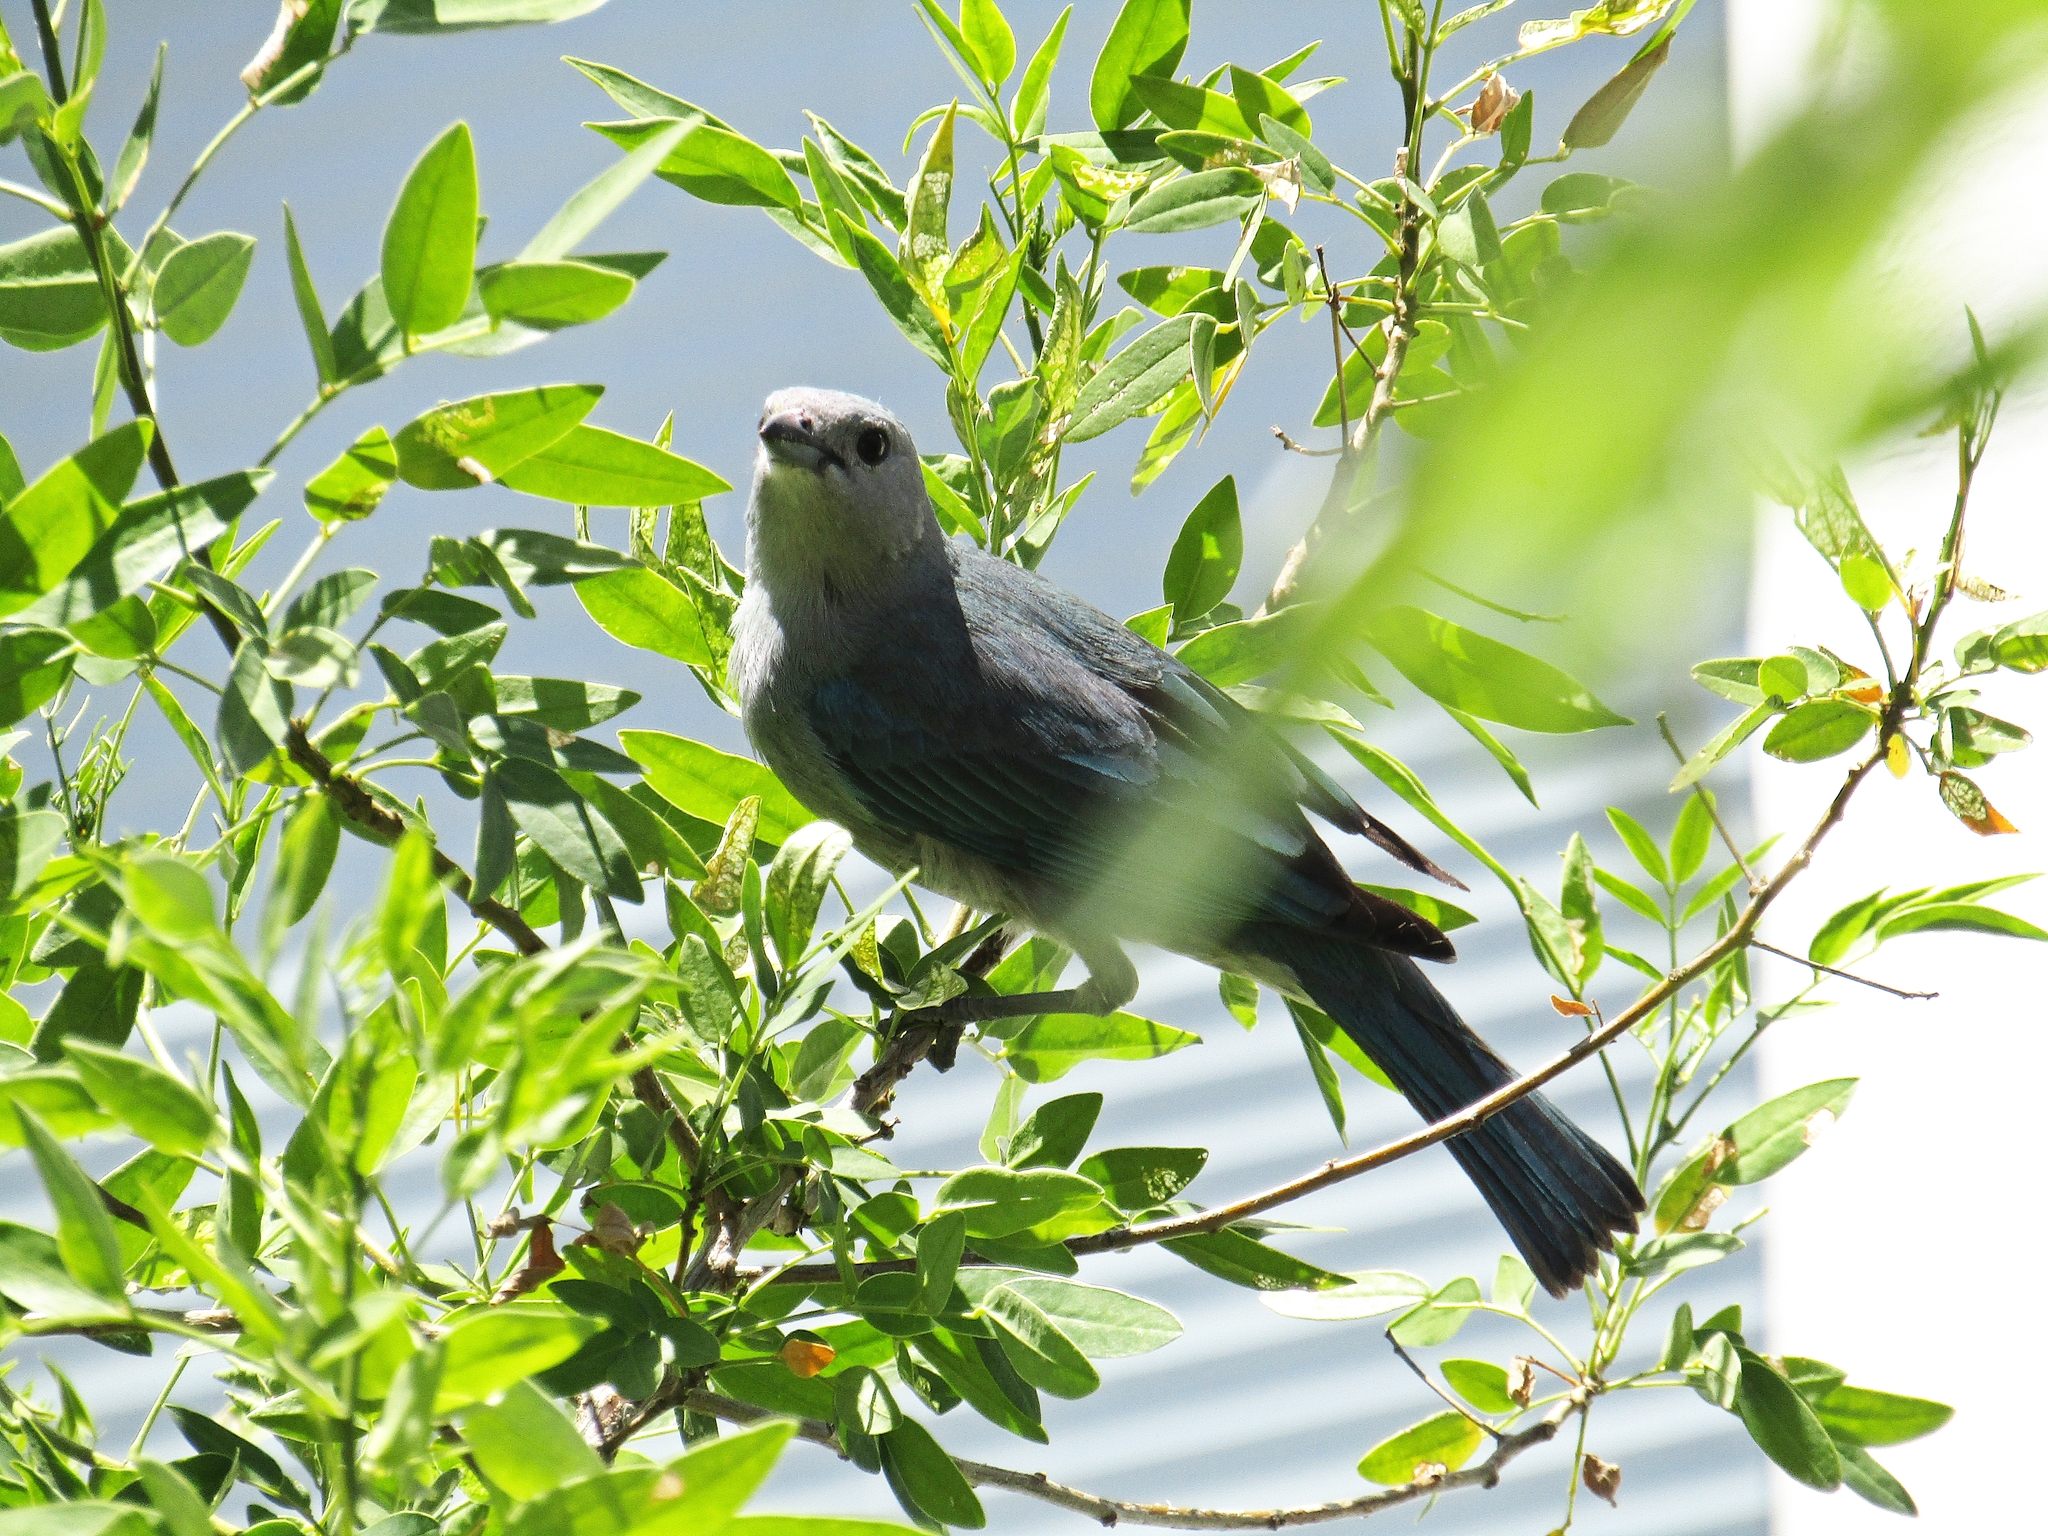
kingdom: Animalia
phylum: Chordata
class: Aves
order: Passeriformes
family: Thraupidae
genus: Thraupis
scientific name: Thraupis sayaca
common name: Sayaca tanager
